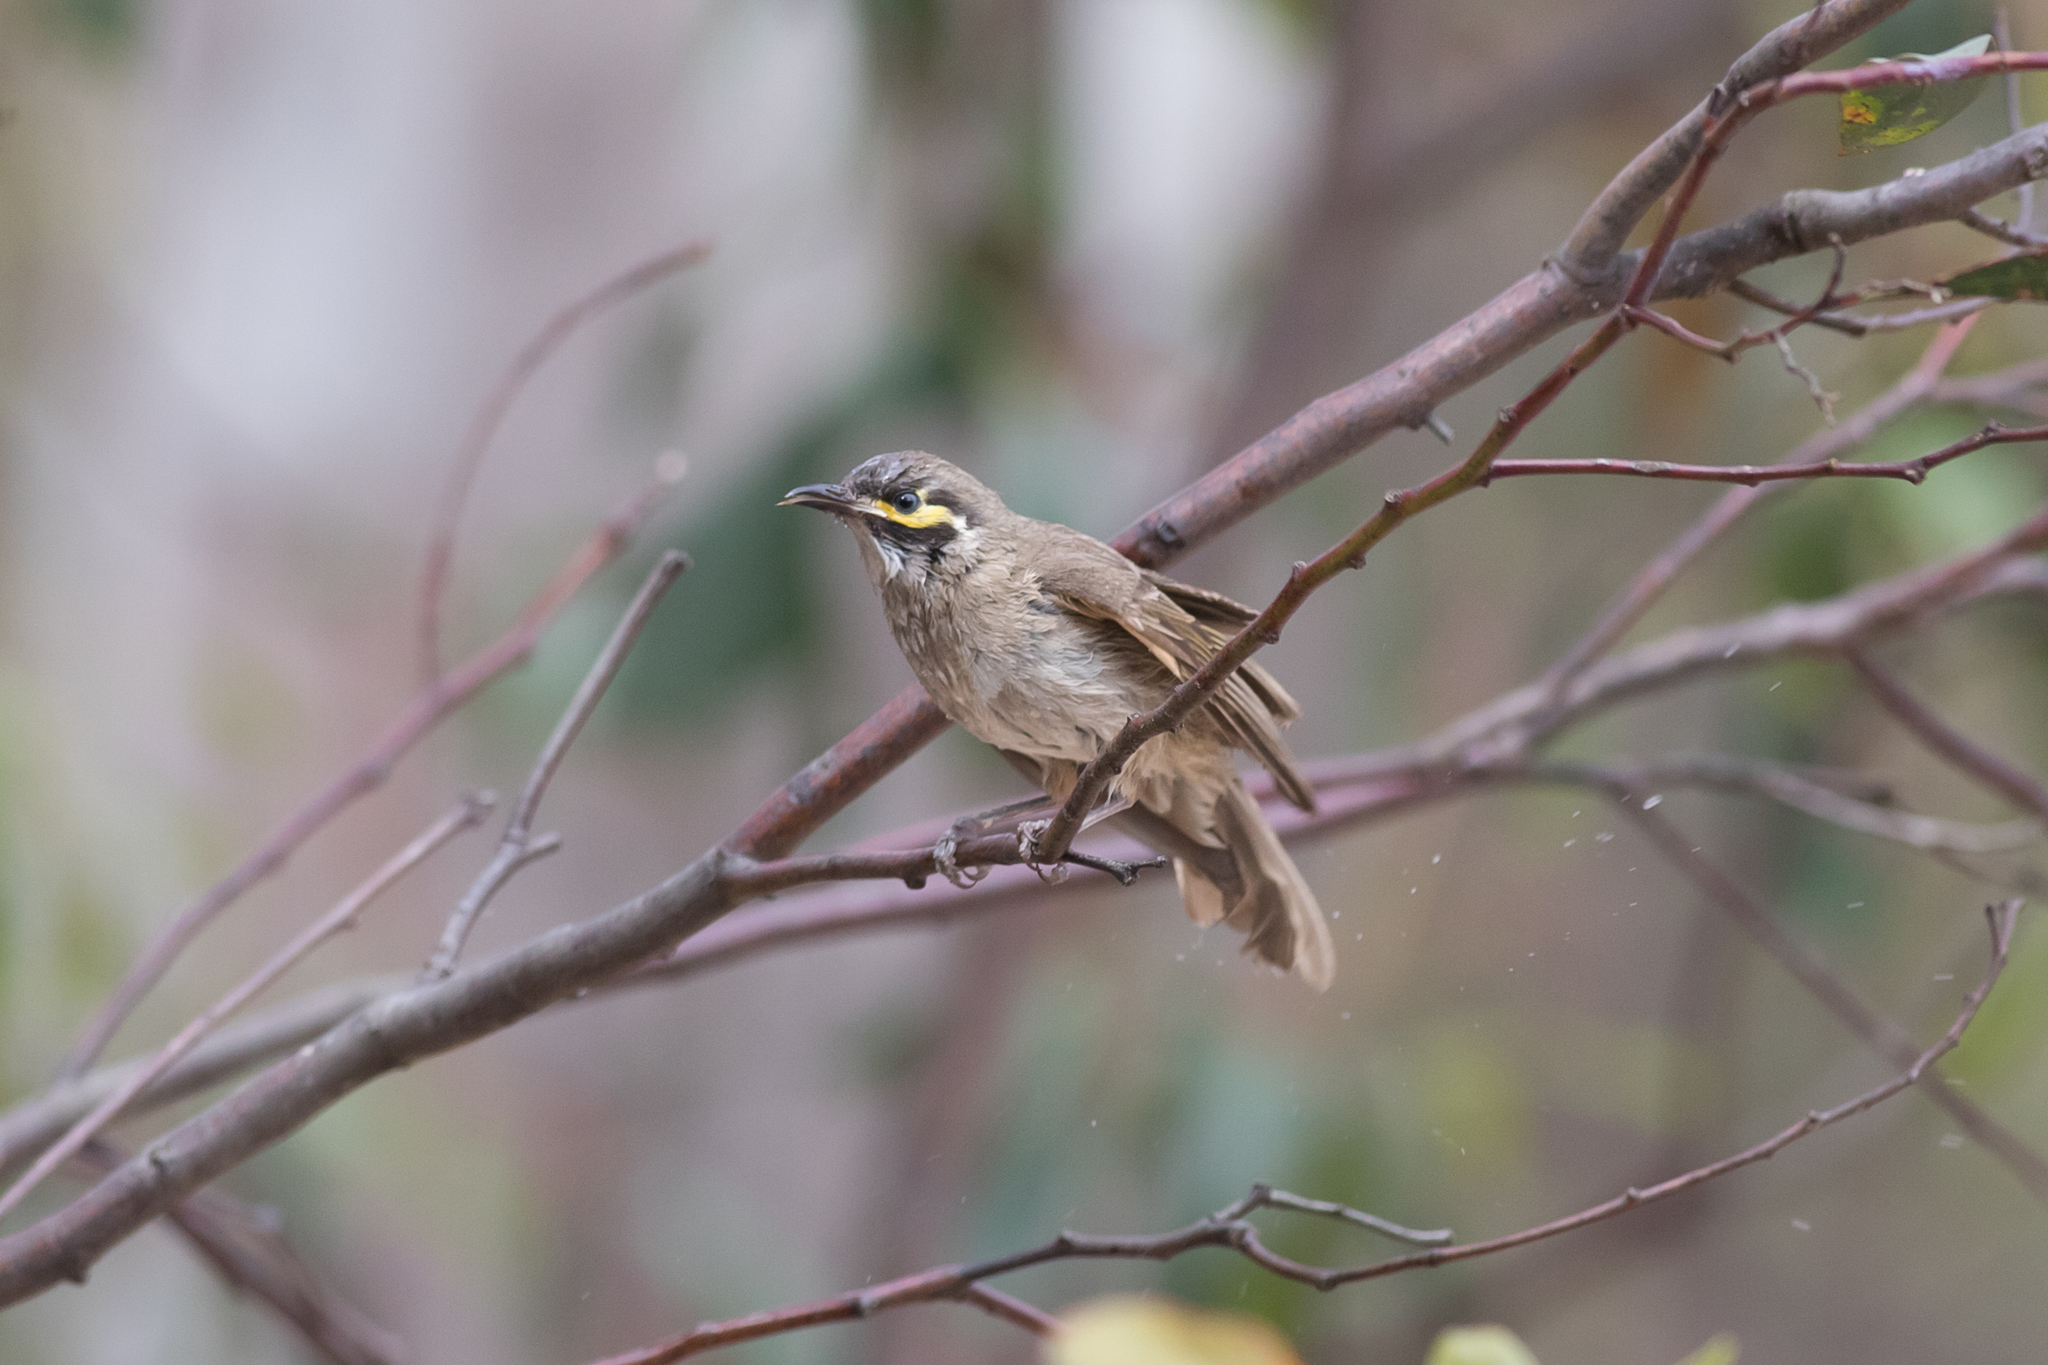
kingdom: Animalia
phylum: Chordata
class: Aves
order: Passeriformes
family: Meliphagidae
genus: Caligavis
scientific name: Caligavis chrysops
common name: Yellow-faced honeyeater
